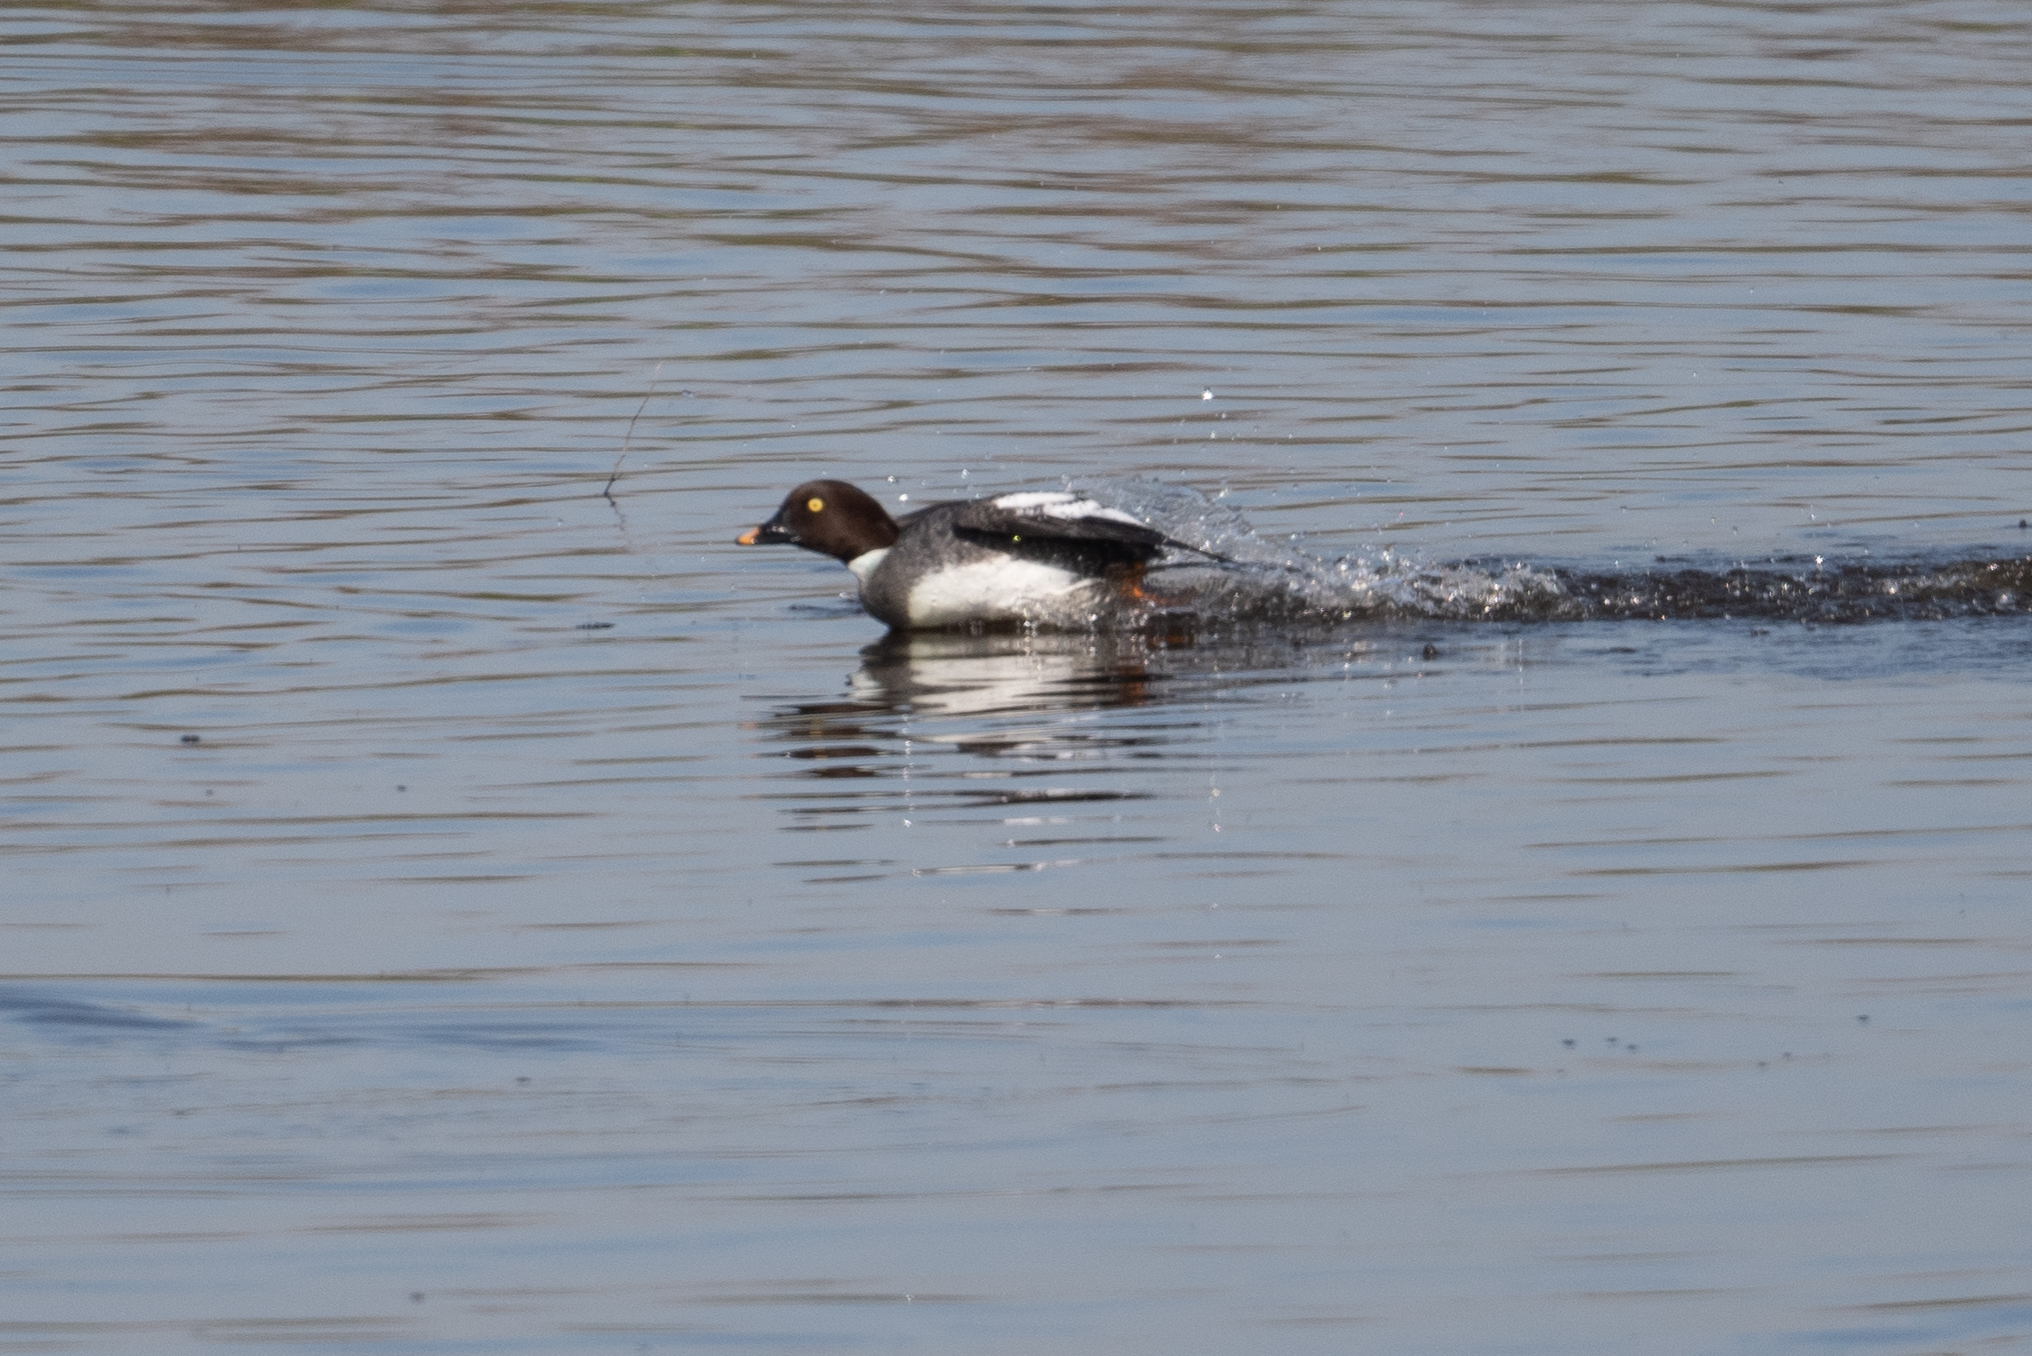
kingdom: Animalia
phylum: Chordata
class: Aves
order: Anseriformes
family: Anatidae
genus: Bucephala
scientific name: Bucephala clangula
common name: Common goldeneye
